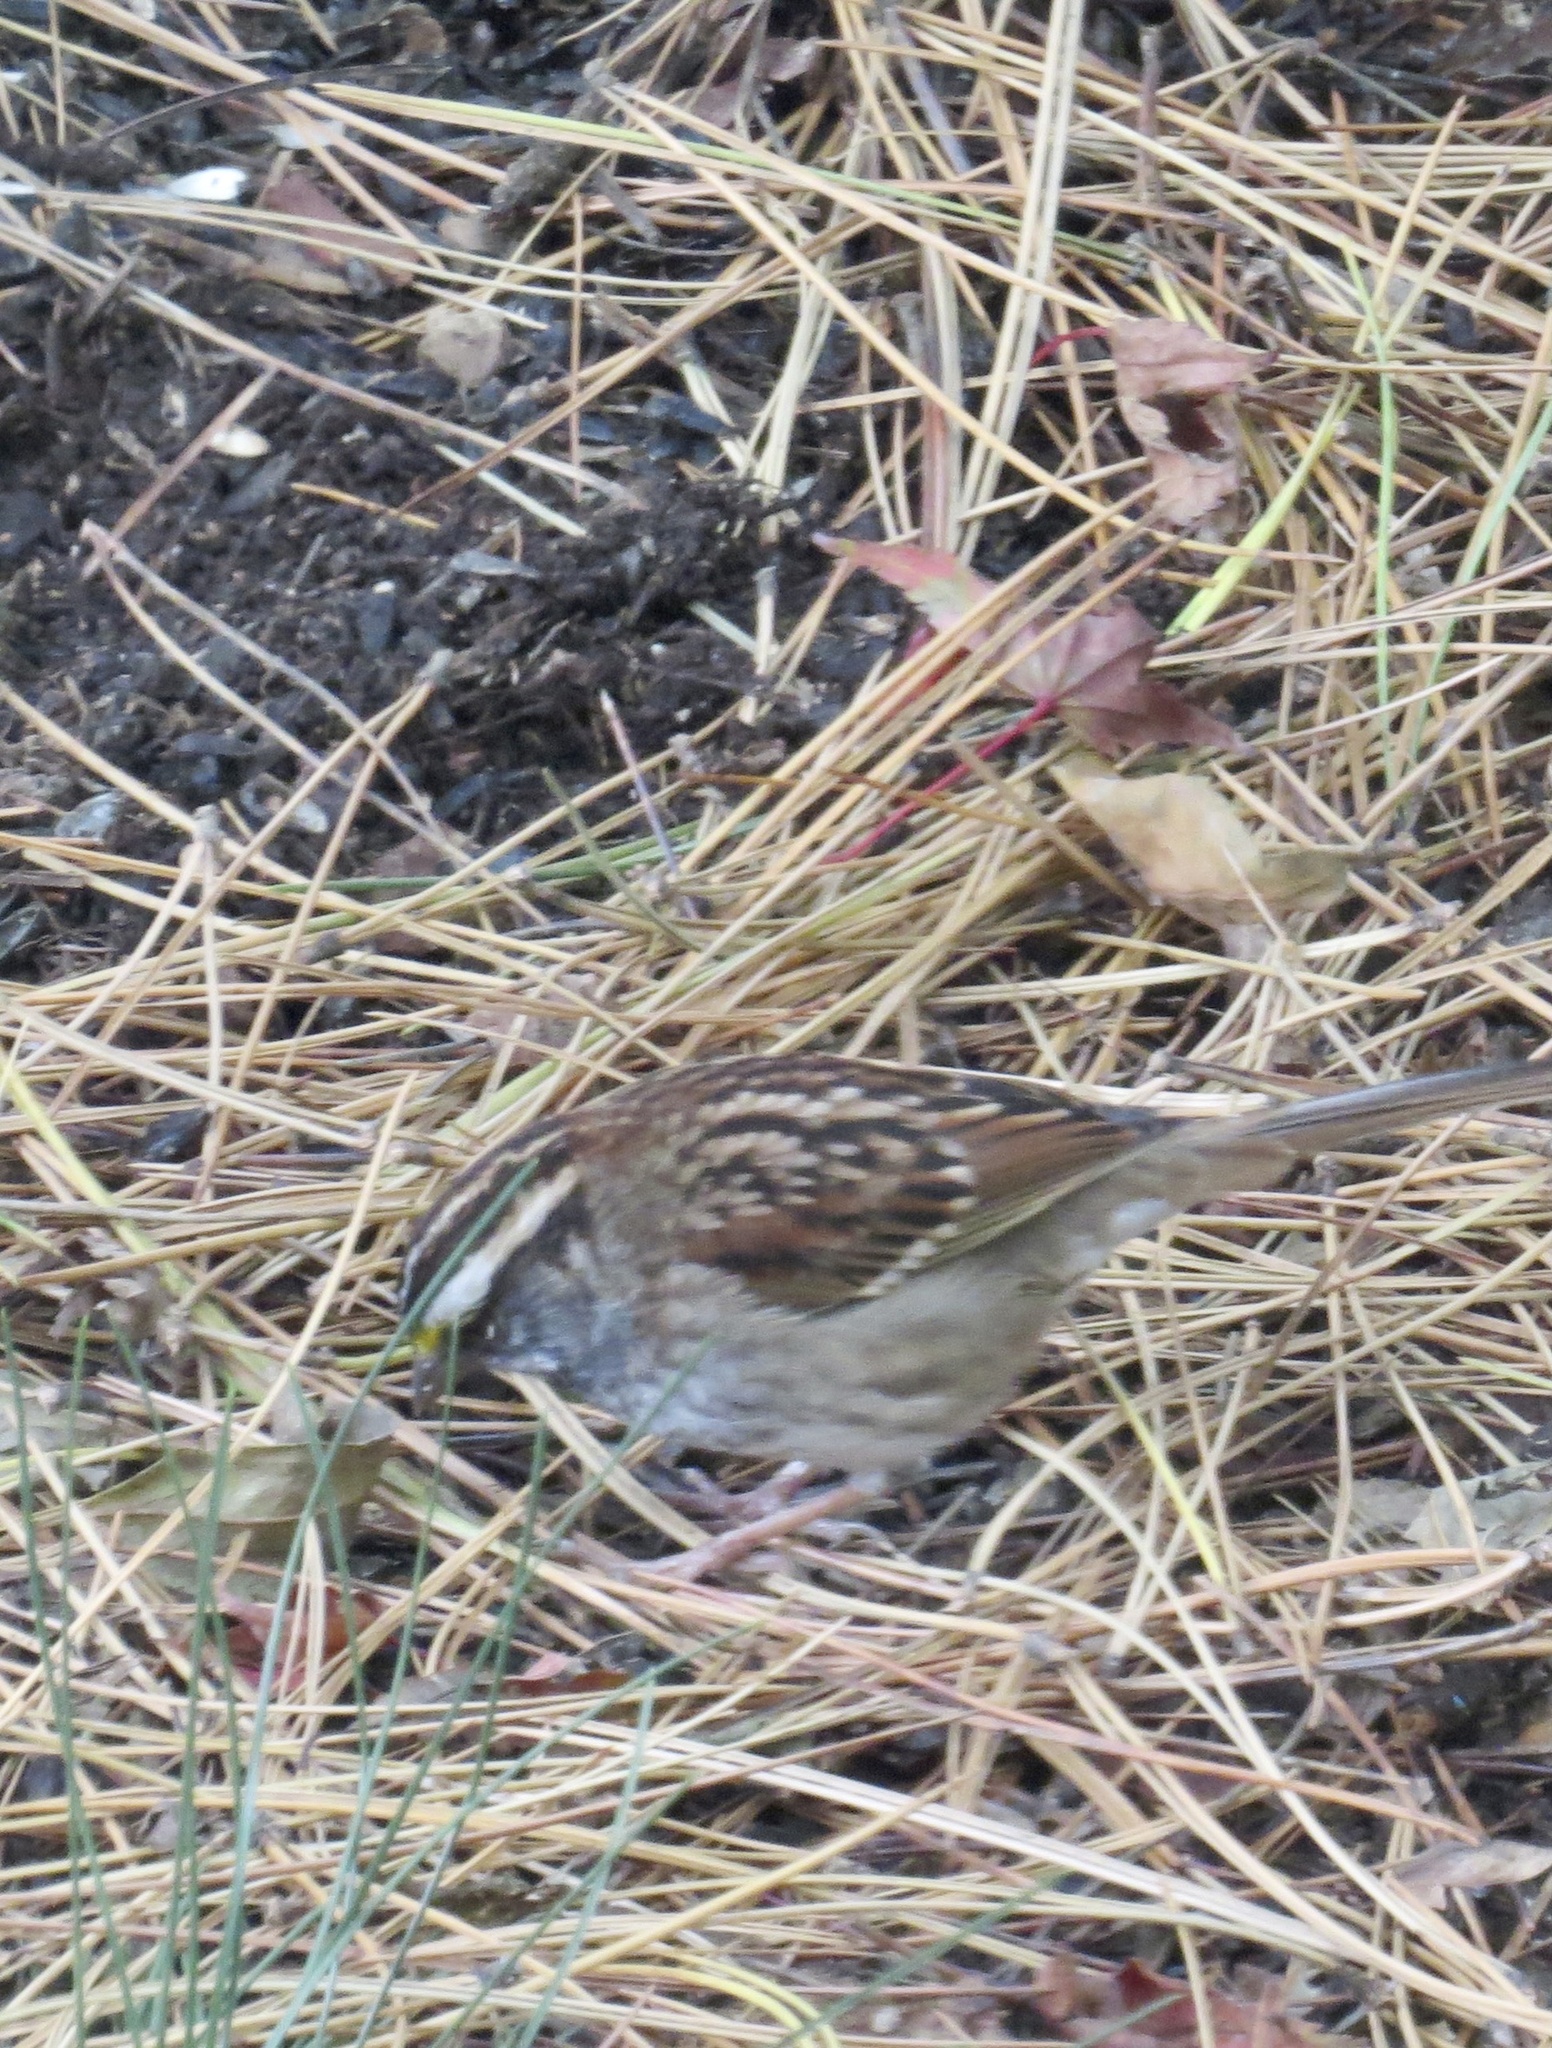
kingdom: Animalia
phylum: Chordata
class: Aves
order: Passeriformes
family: Passerellidae
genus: Zonotrichia
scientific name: Zonotrichia albicollis
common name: White-throated sparrow
